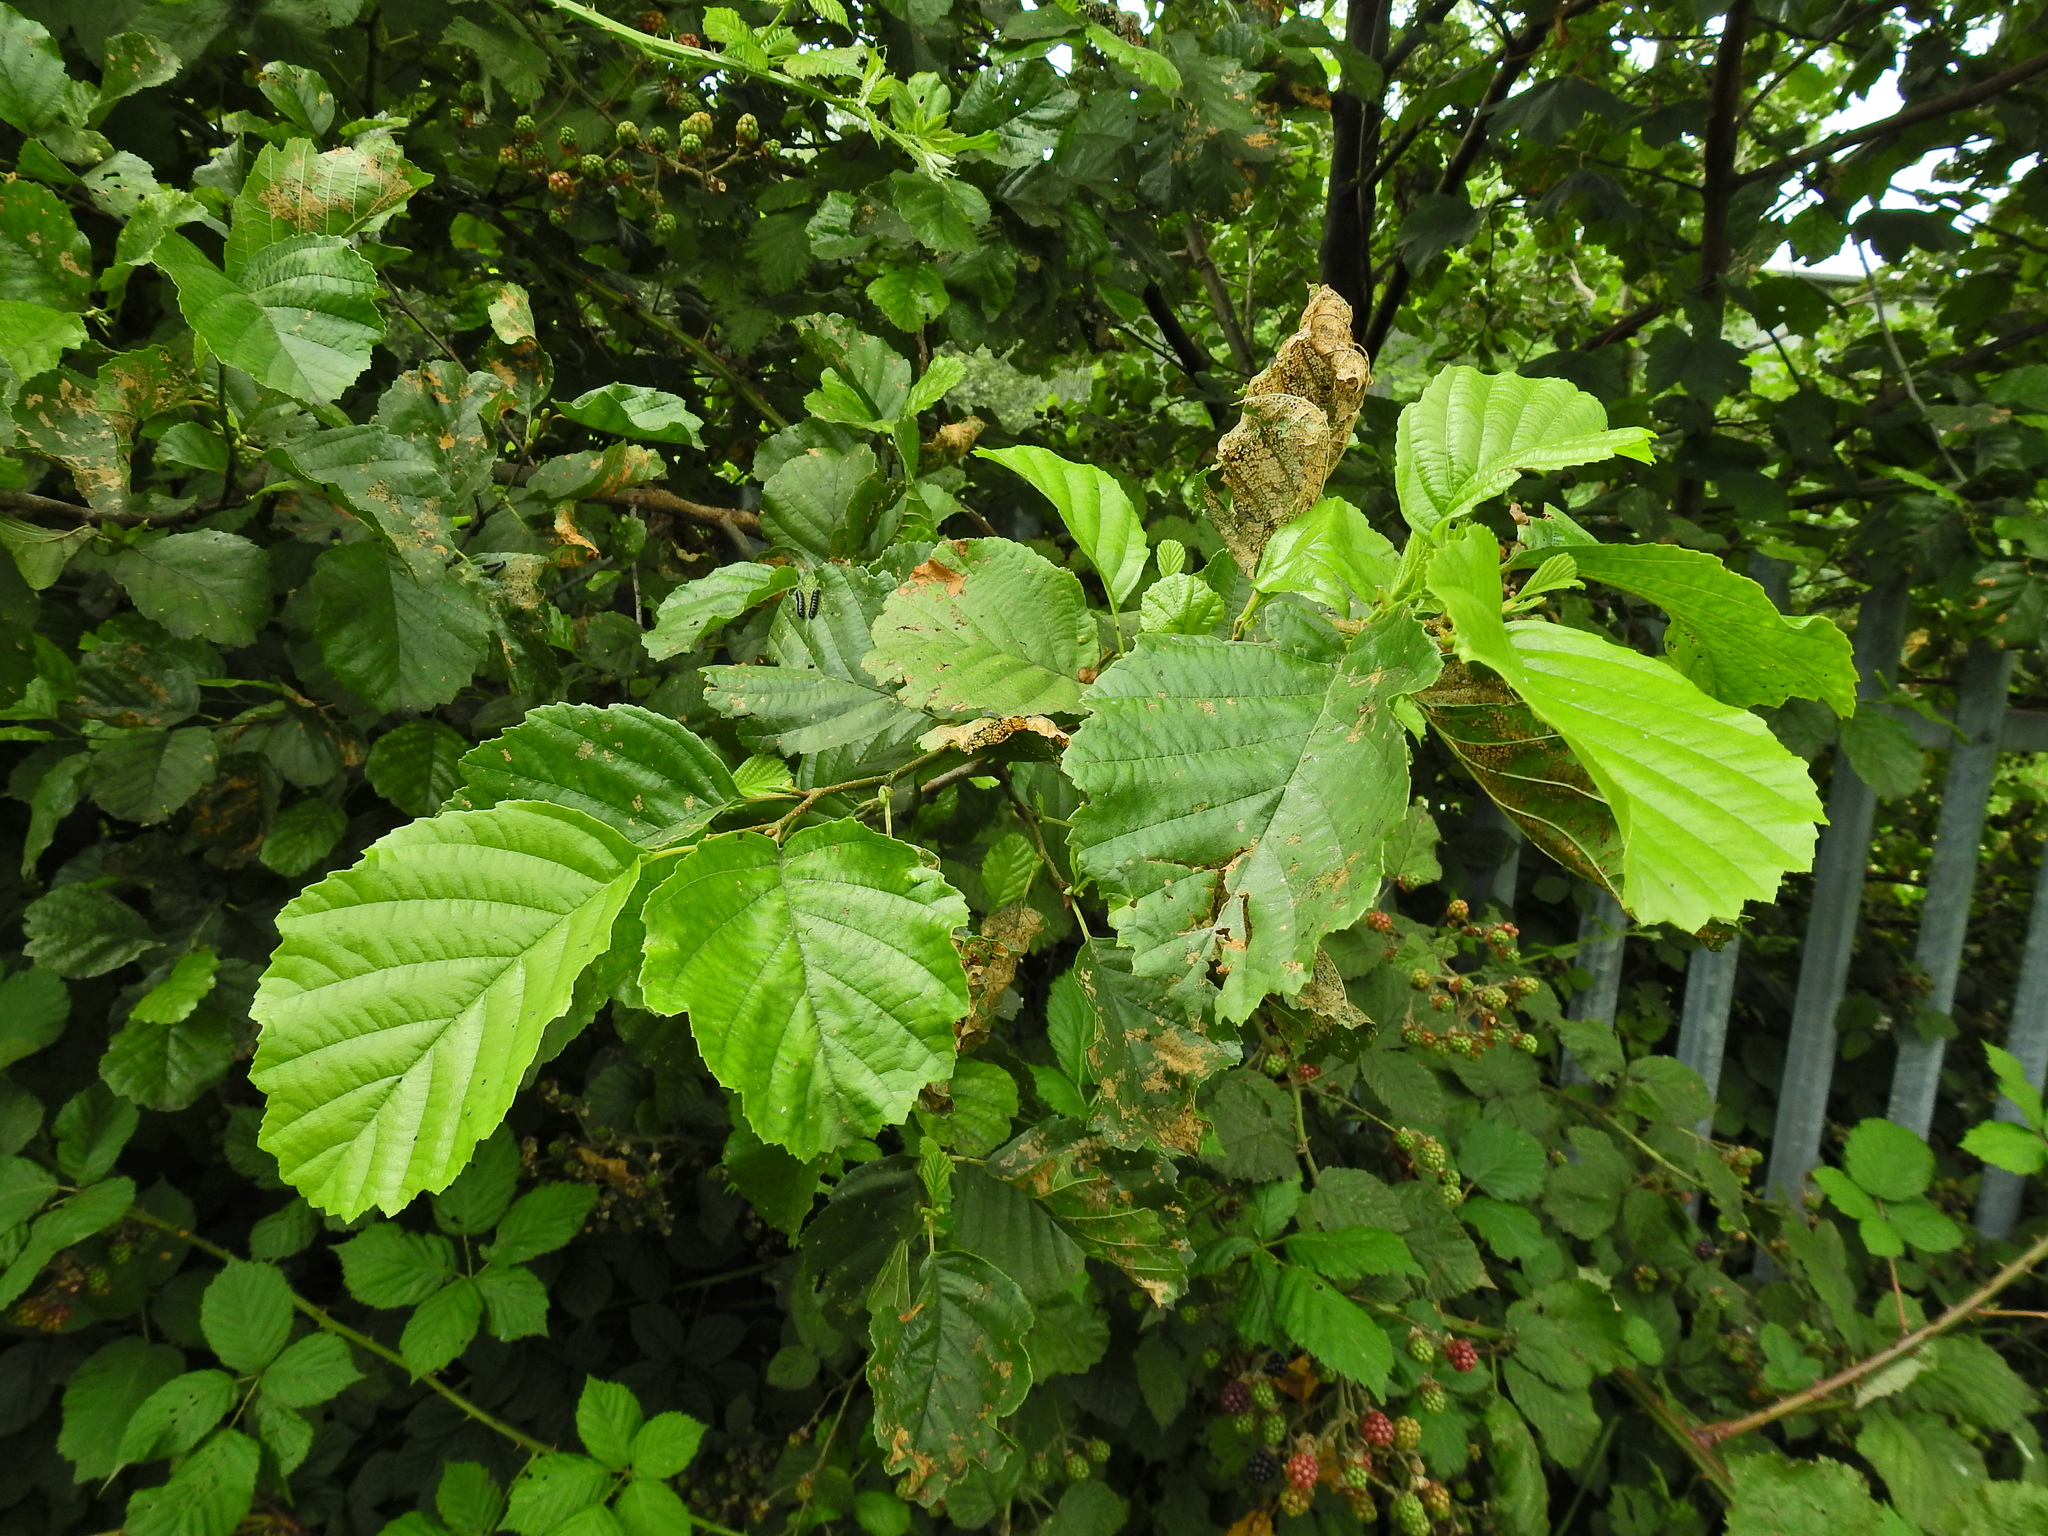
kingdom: Plantae
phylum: Tracheophyta
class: Magnoliopsida
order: Fagales
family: Betulaceae
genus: Alnus
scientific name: Alnus glutinosa
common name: Black alder
